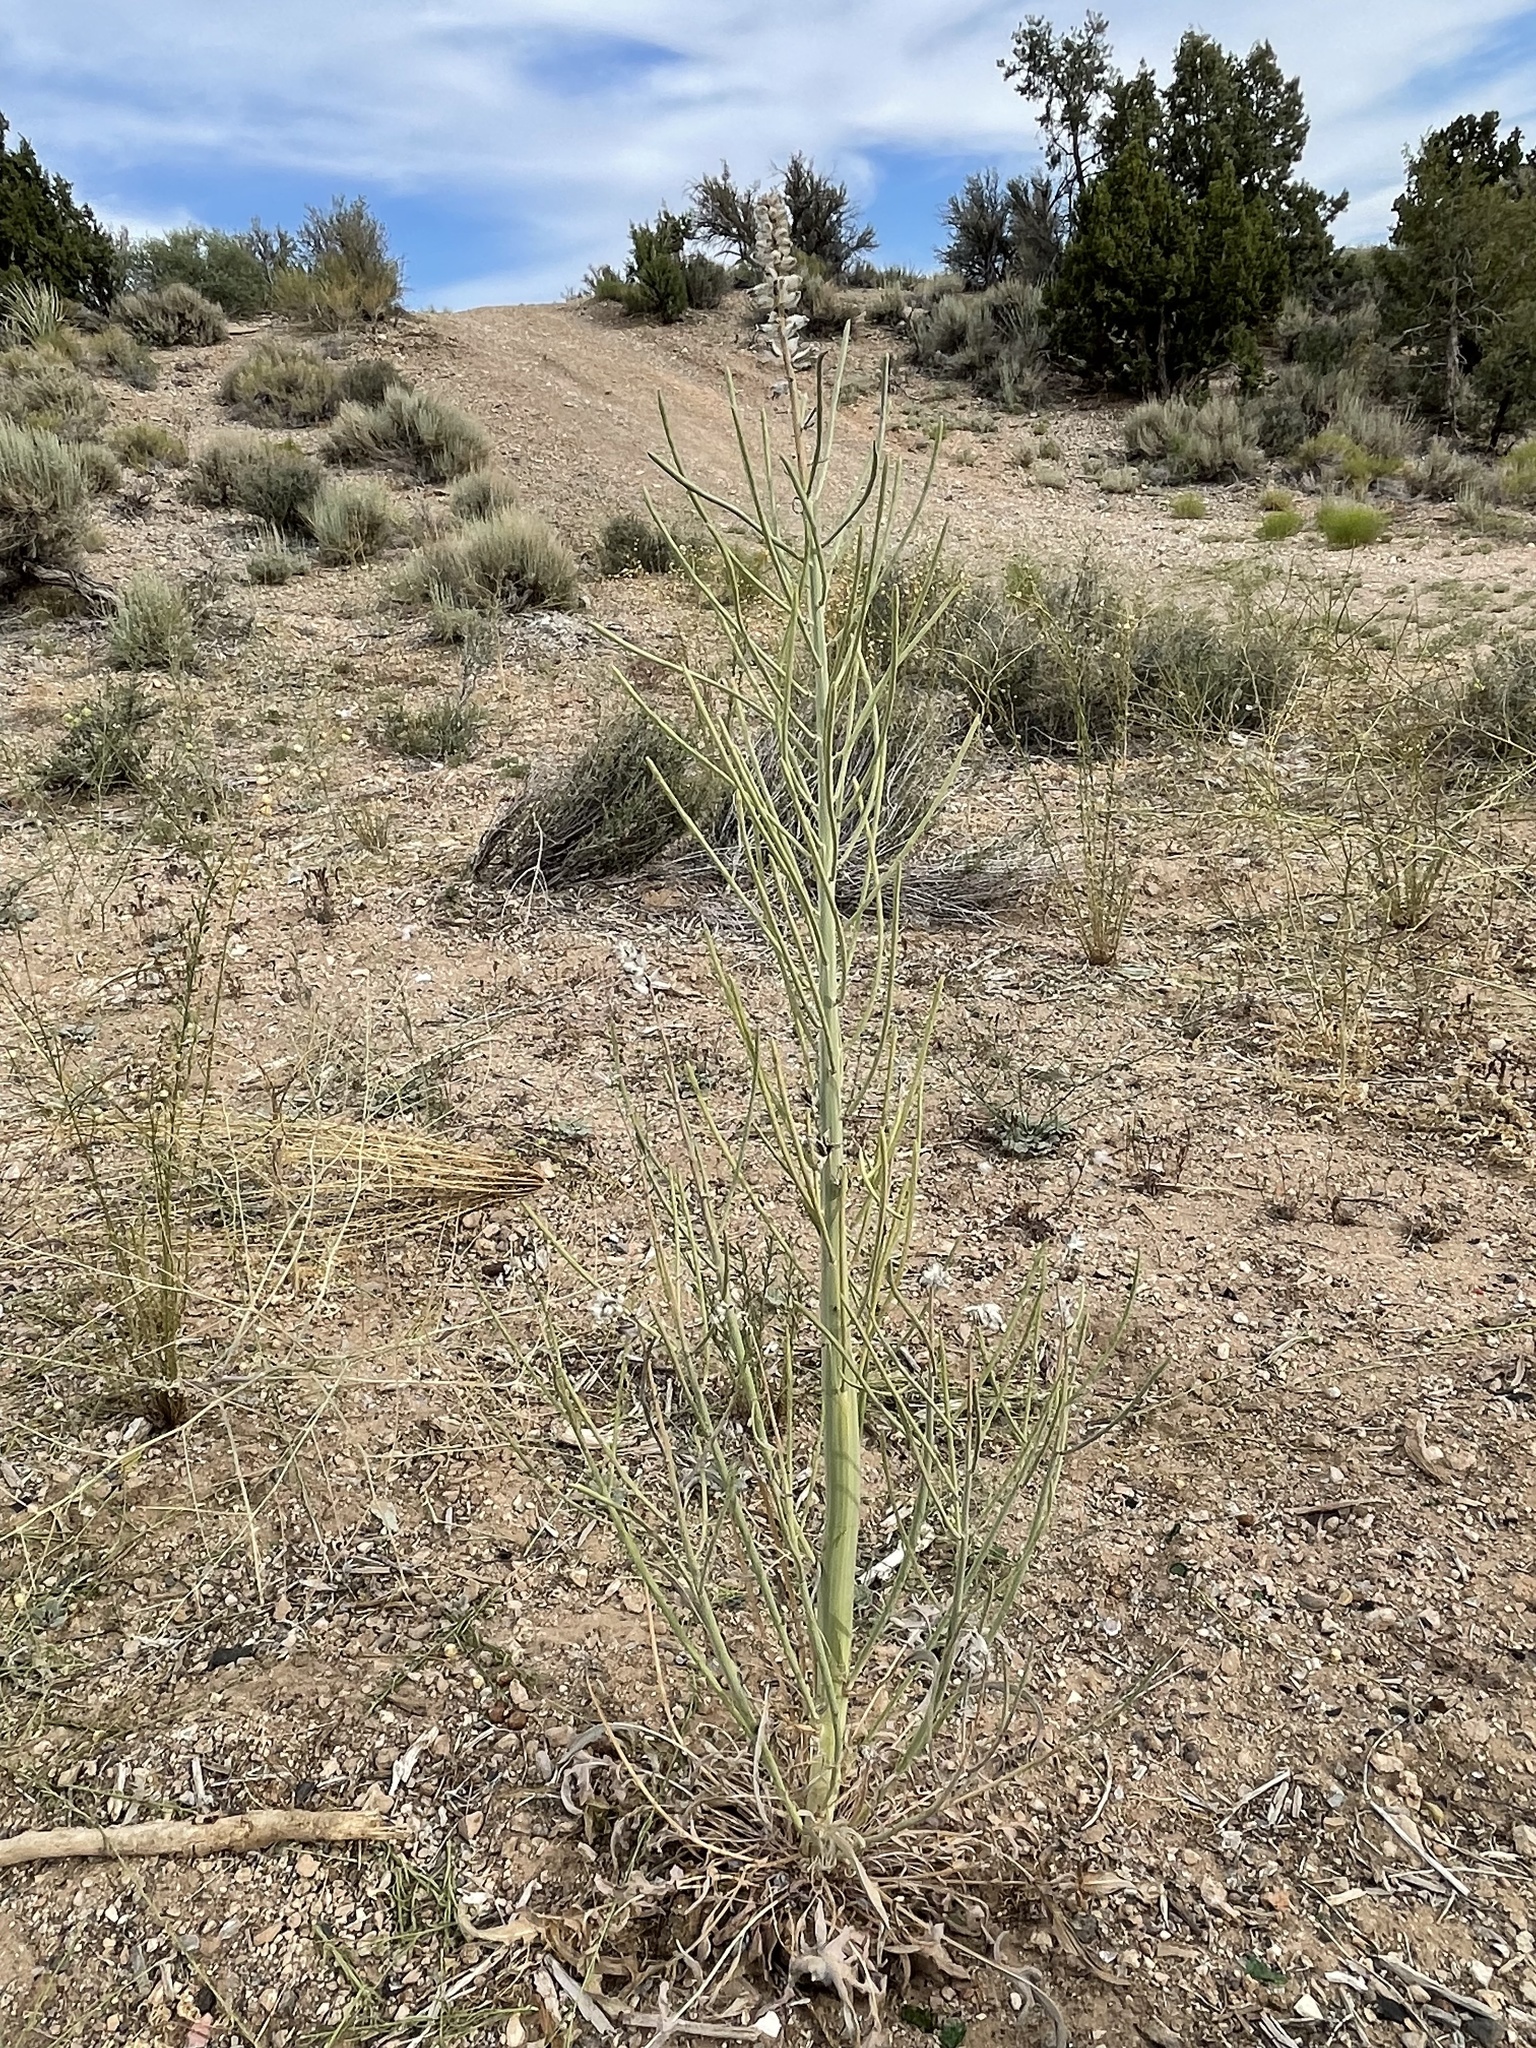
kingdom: Plantae
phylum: Tracheophyta
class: Magnoliopsida
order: Brassicales
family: Brassicaceae
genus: Streptanthus
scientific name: Streptanthus crassicaulis
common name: Thick-stem wild cabbage
